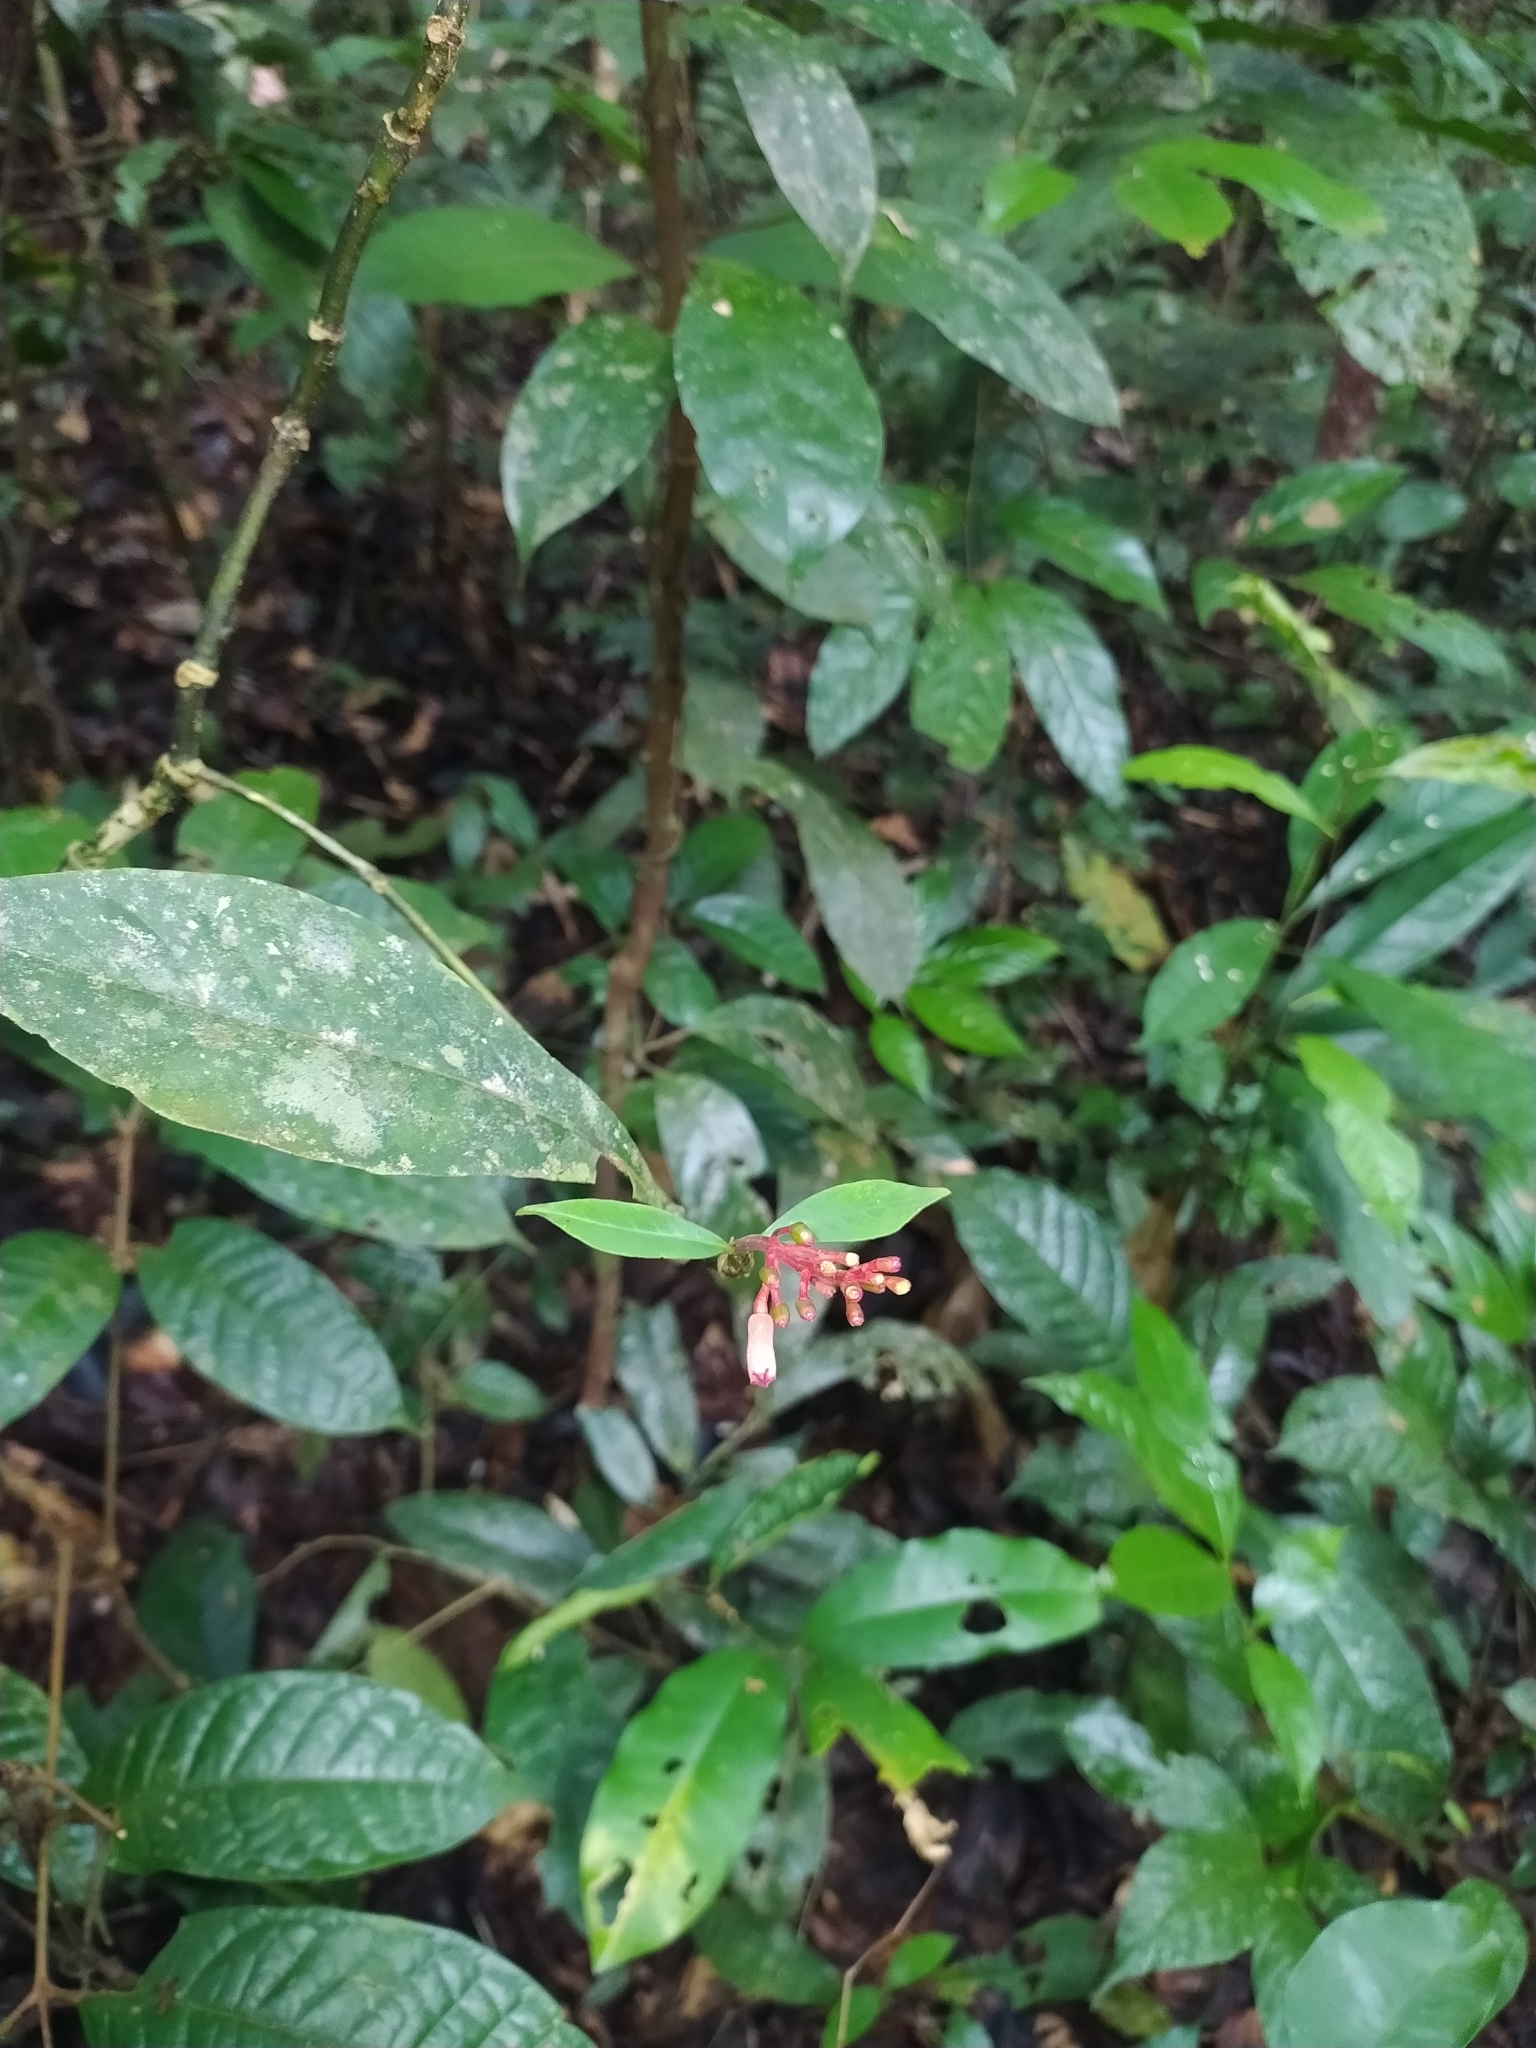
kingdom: Plantae
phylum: Tracheophyta
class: Magnoliopsida
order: Gentianales
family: Rubiaceae
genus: Palicourea
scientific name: Palicourea calophylla
